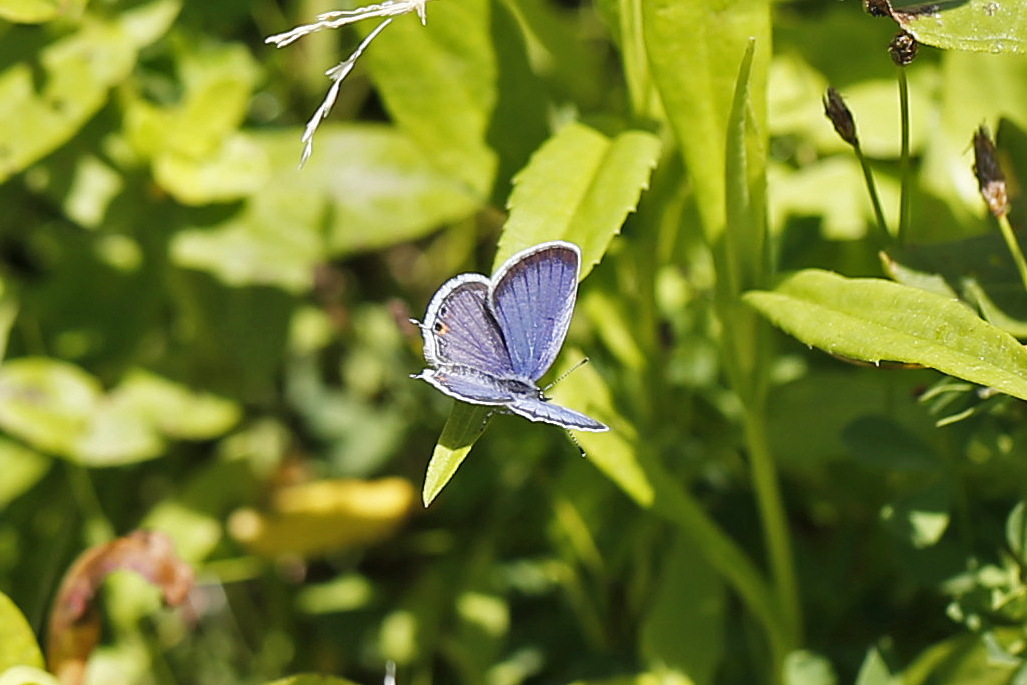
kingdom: Animalia
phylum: Arthropoda
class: Insecta
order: Lepidoptera
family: Lycaenidae
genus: Elkalyce
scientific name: Elkalyce comyntas
